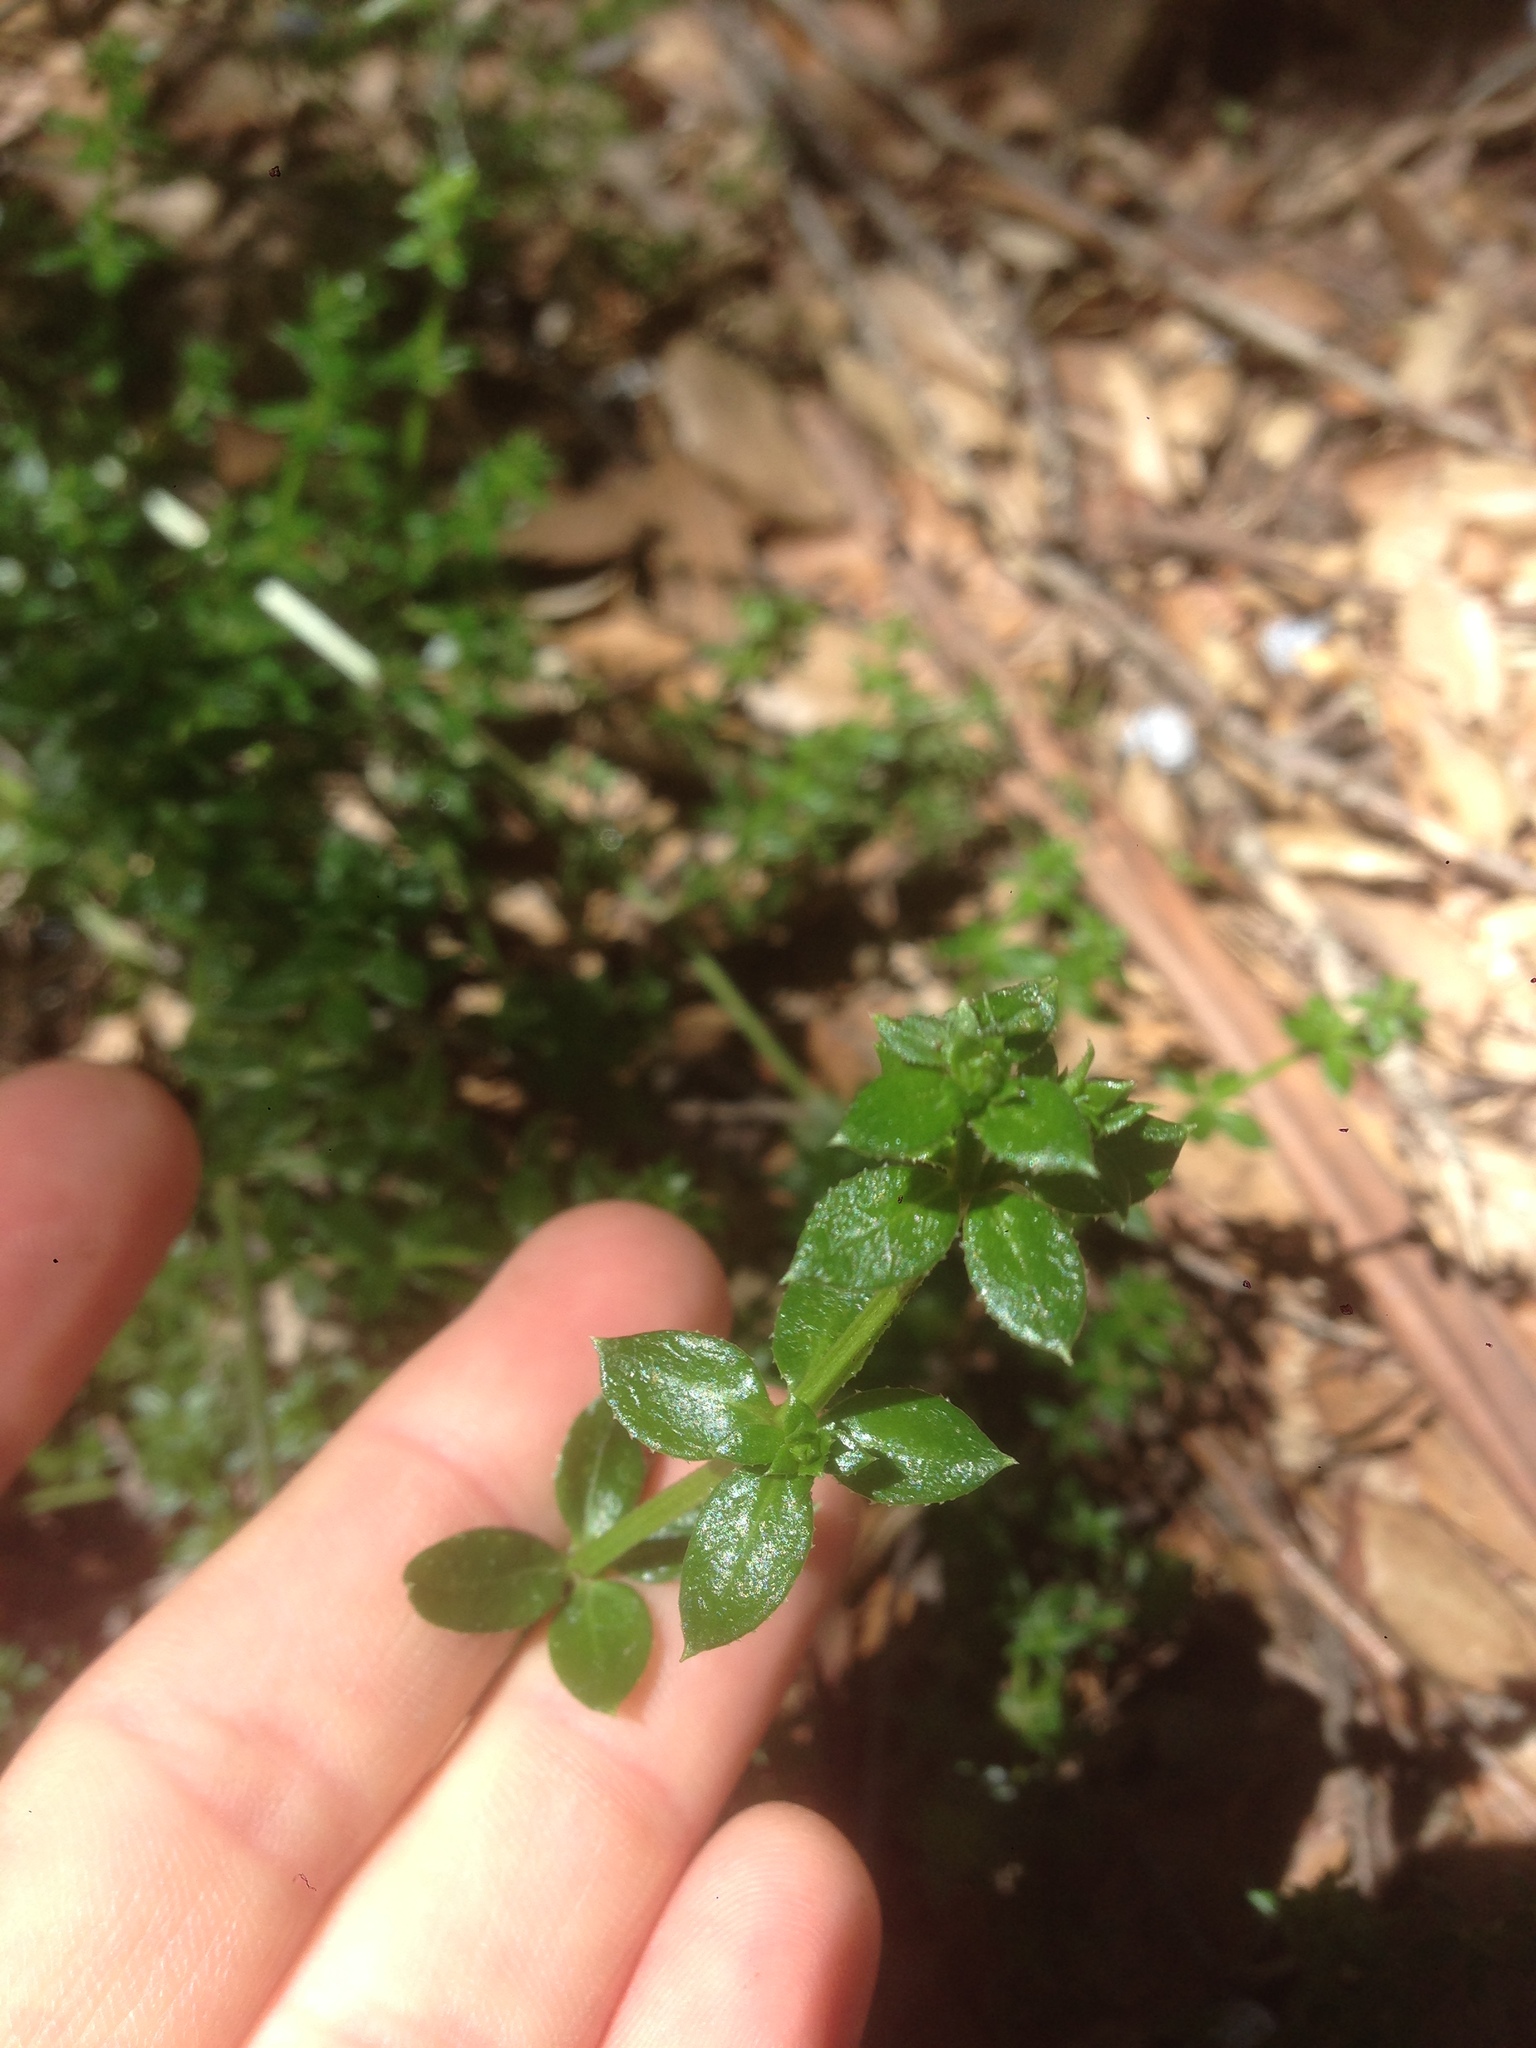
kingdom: Plantae
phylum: Tracheophyta
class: Magnoliopsida
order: Gentianales
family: Rubiaceae
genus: Galium
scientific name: Galium cliftonsmithii
